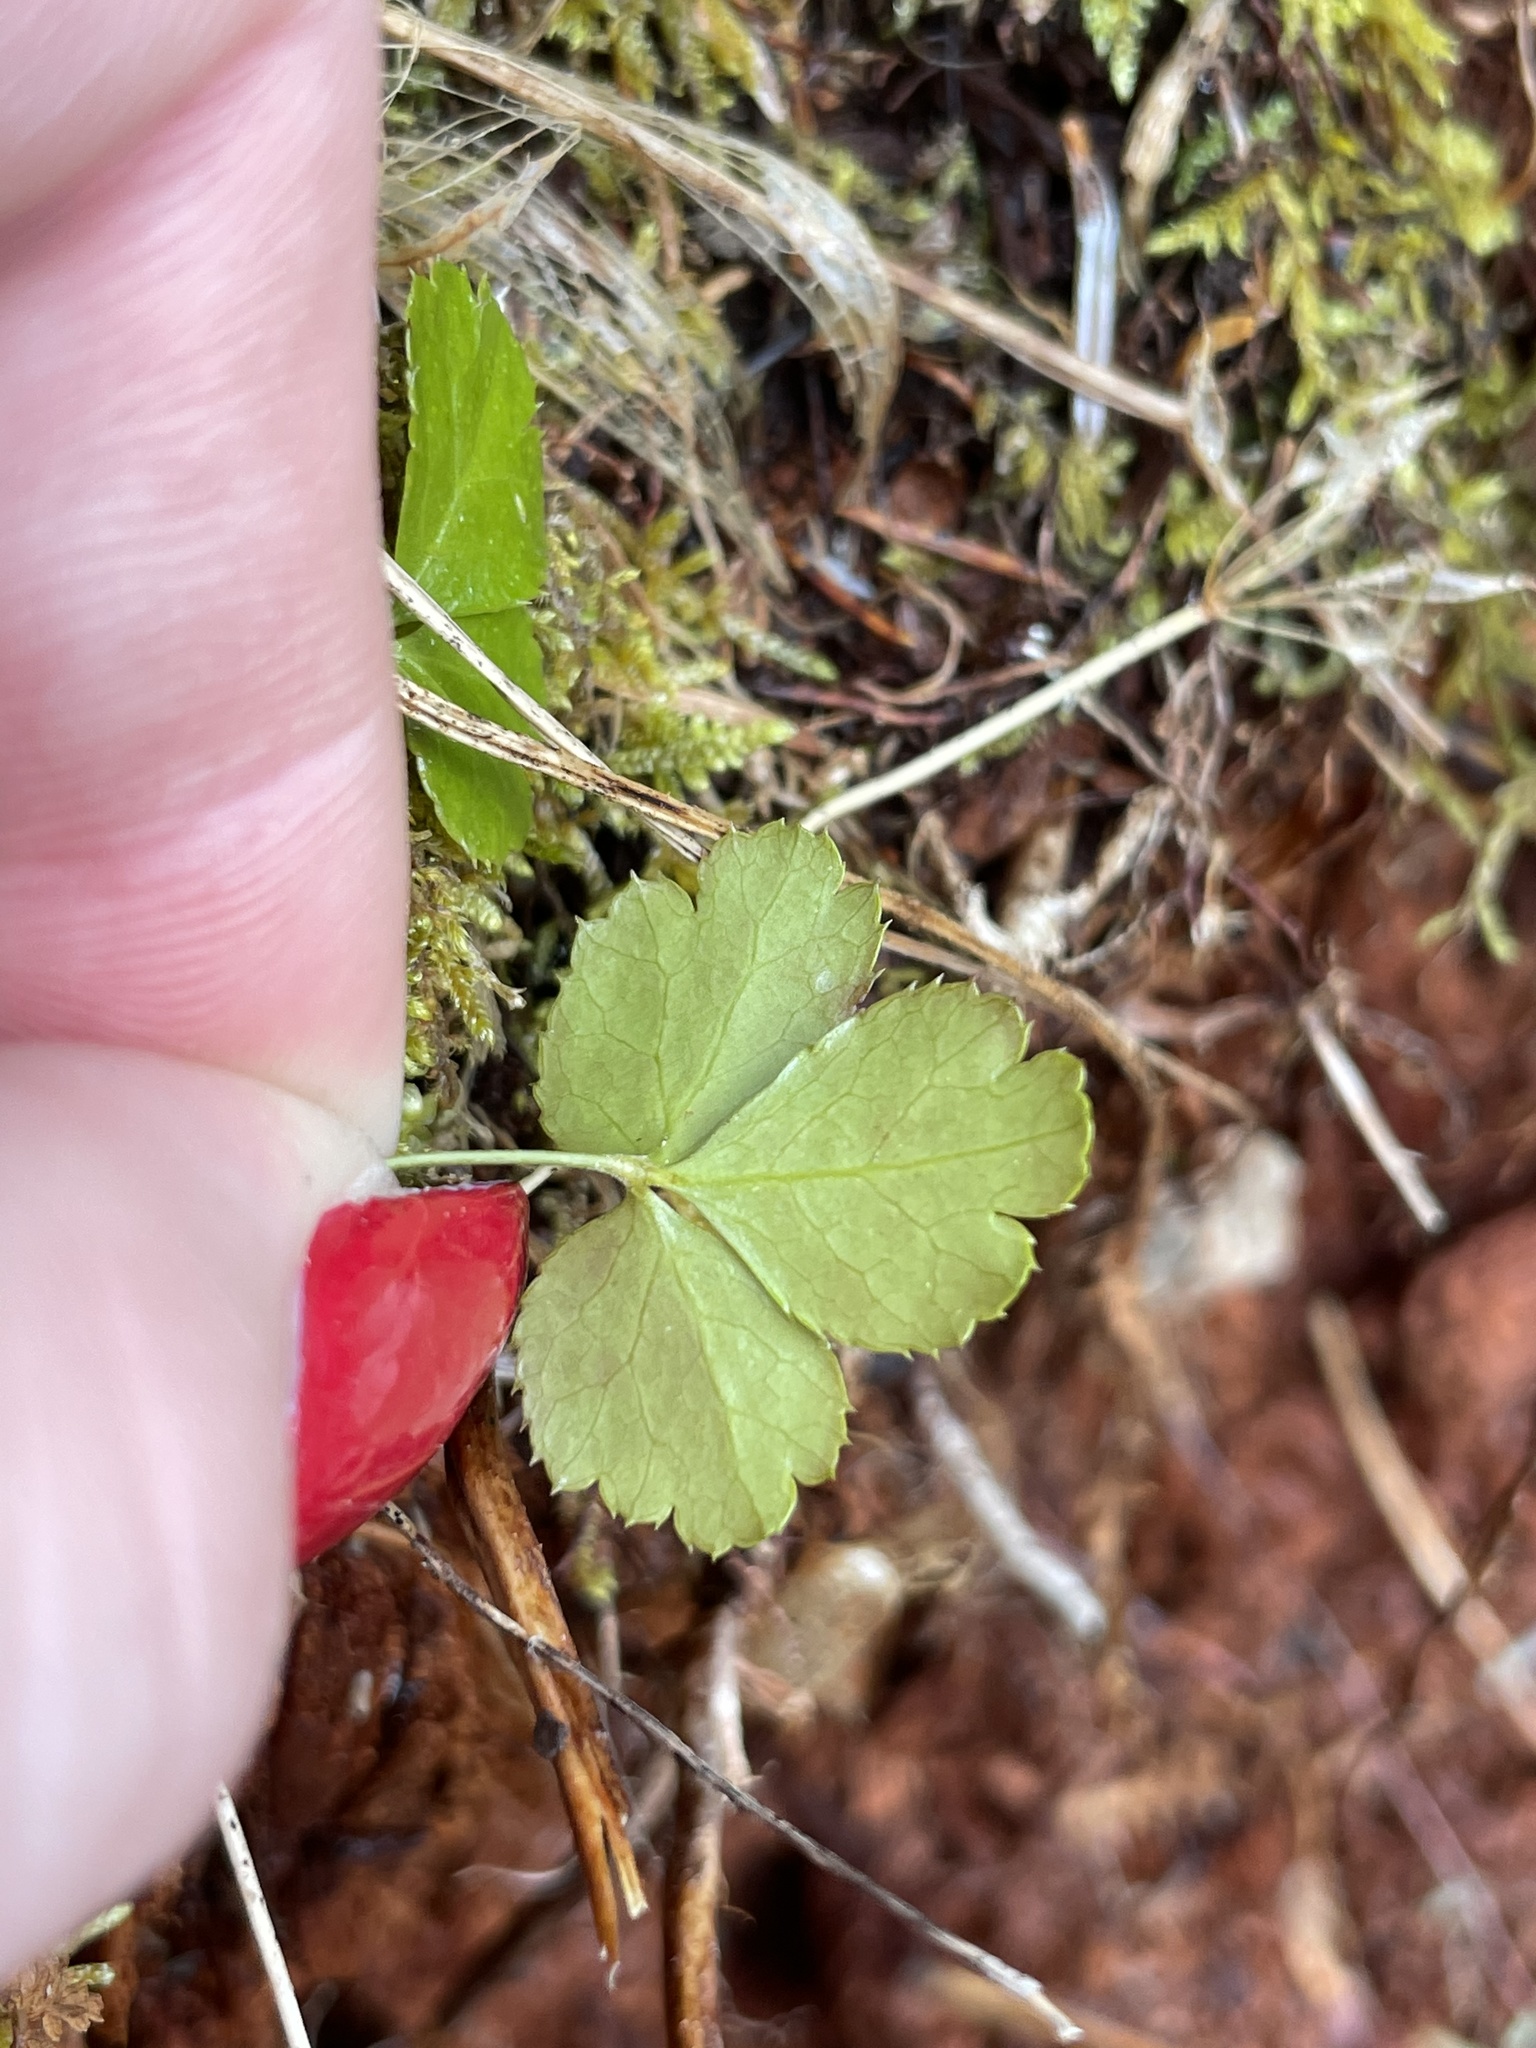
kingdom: Plantae
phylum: Tracheophyta
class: Magnoliopsida
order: Ranunculales
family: Ranunculaceae
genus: Coptis
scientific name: Coptis trifolia
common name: Canker-root
